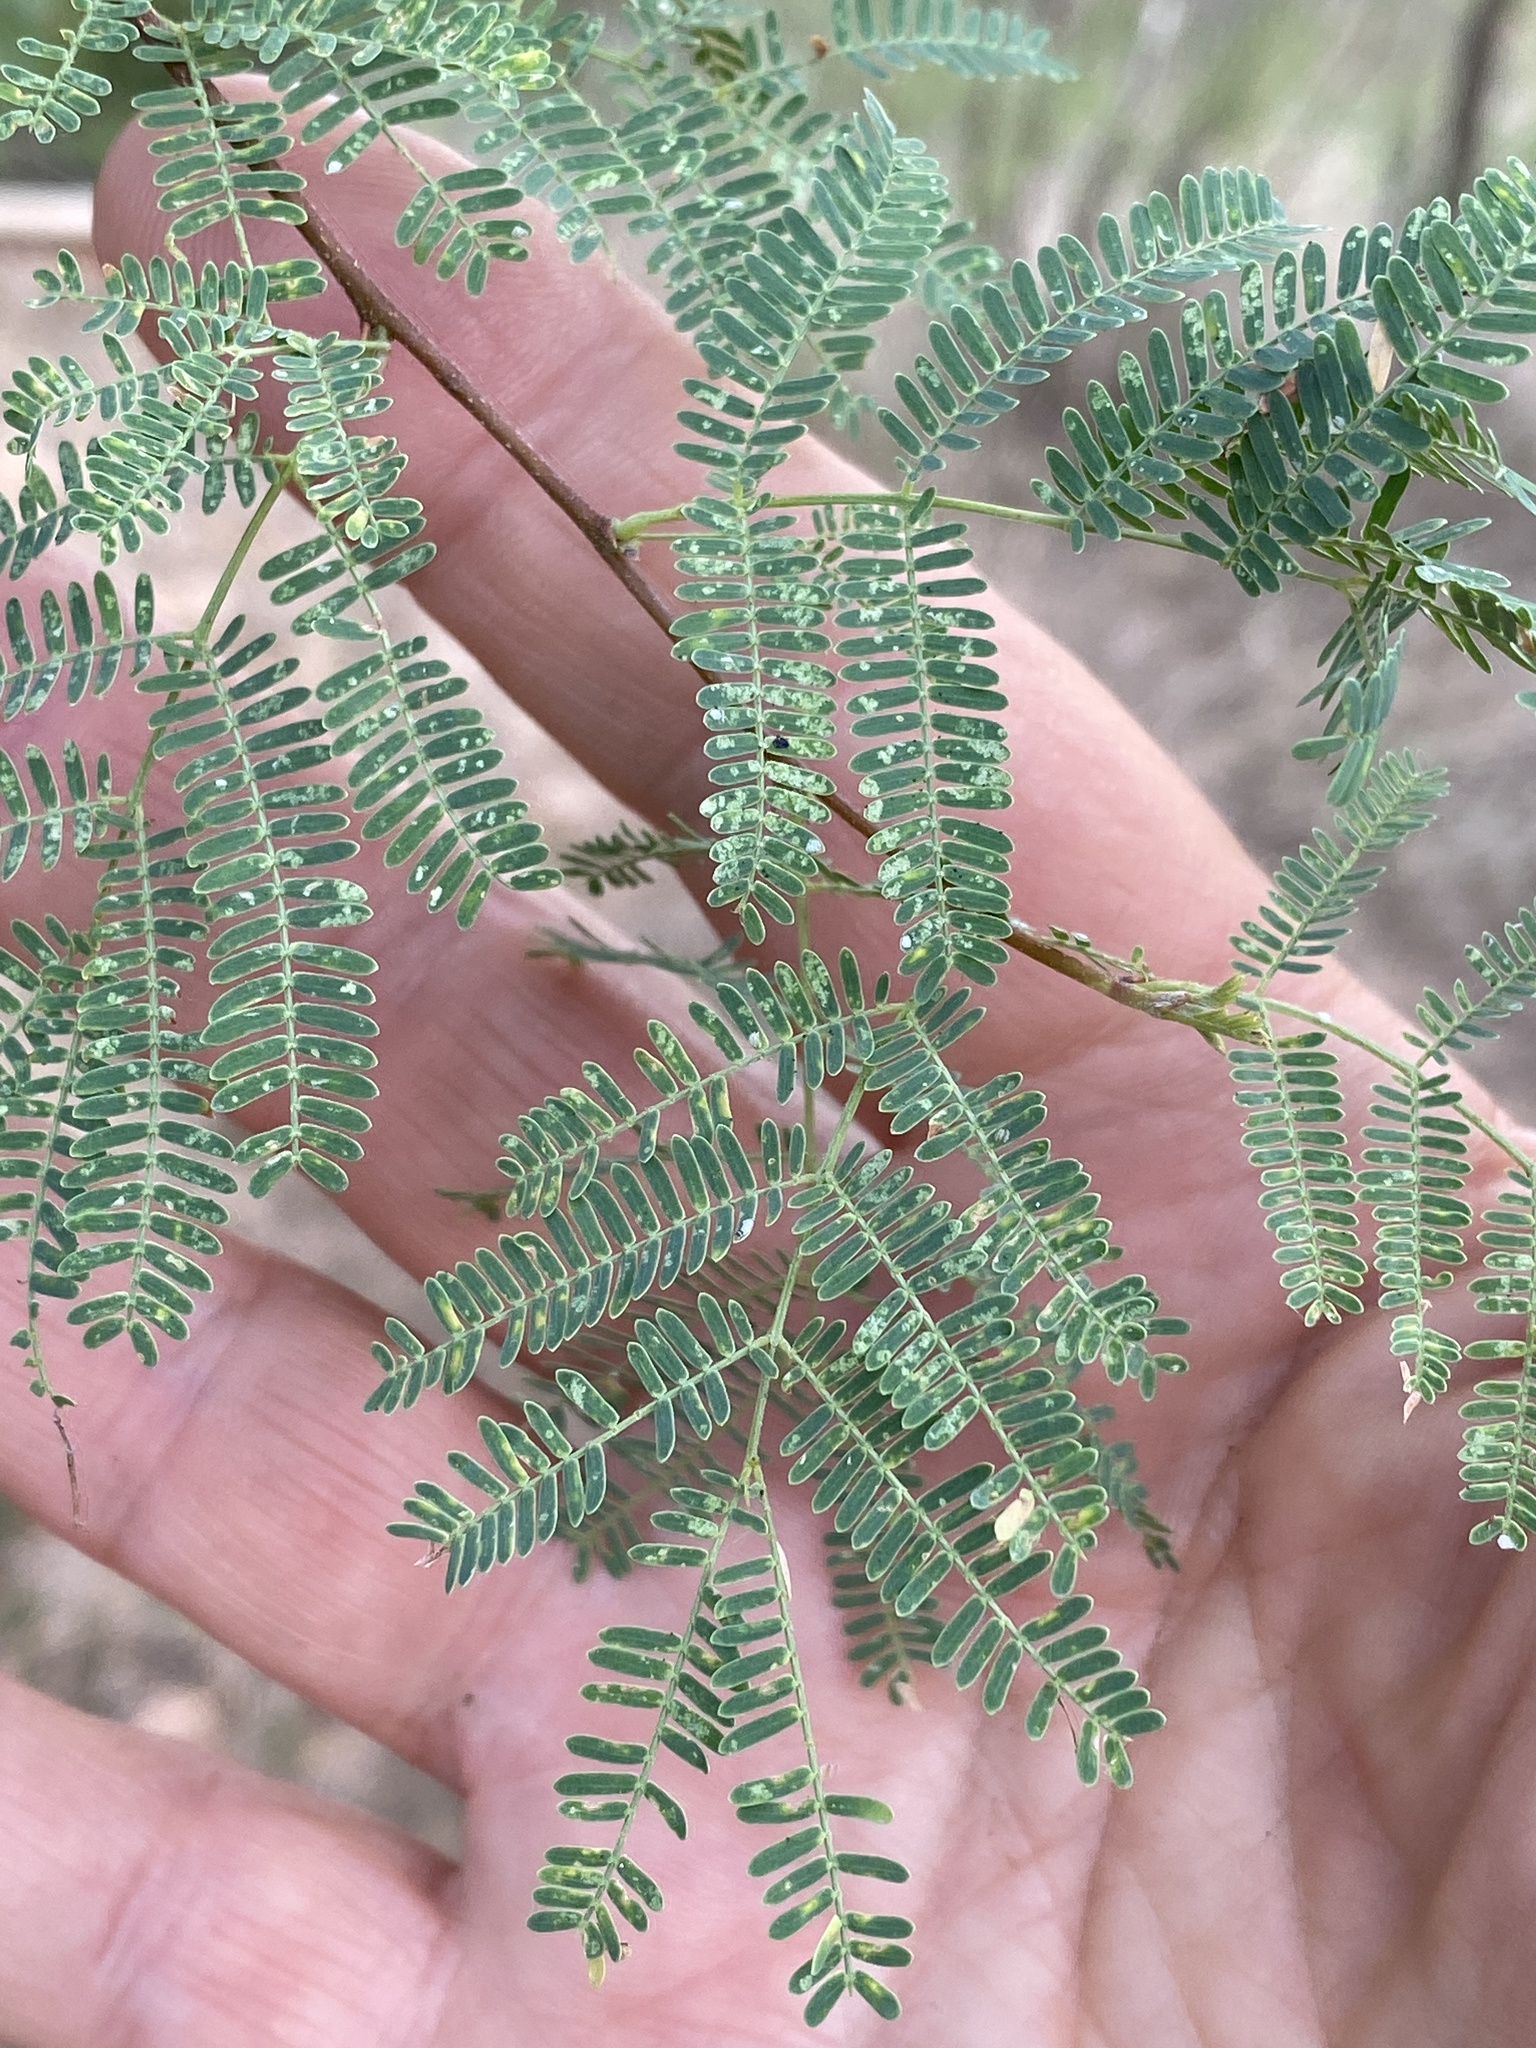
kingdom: Plantae
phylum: Tracheophyta
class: Magnoliopsida
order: Fabales
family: Fabaceae
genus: Vachellia
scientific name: Vachellia farnesiana
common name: Sweet acacia
